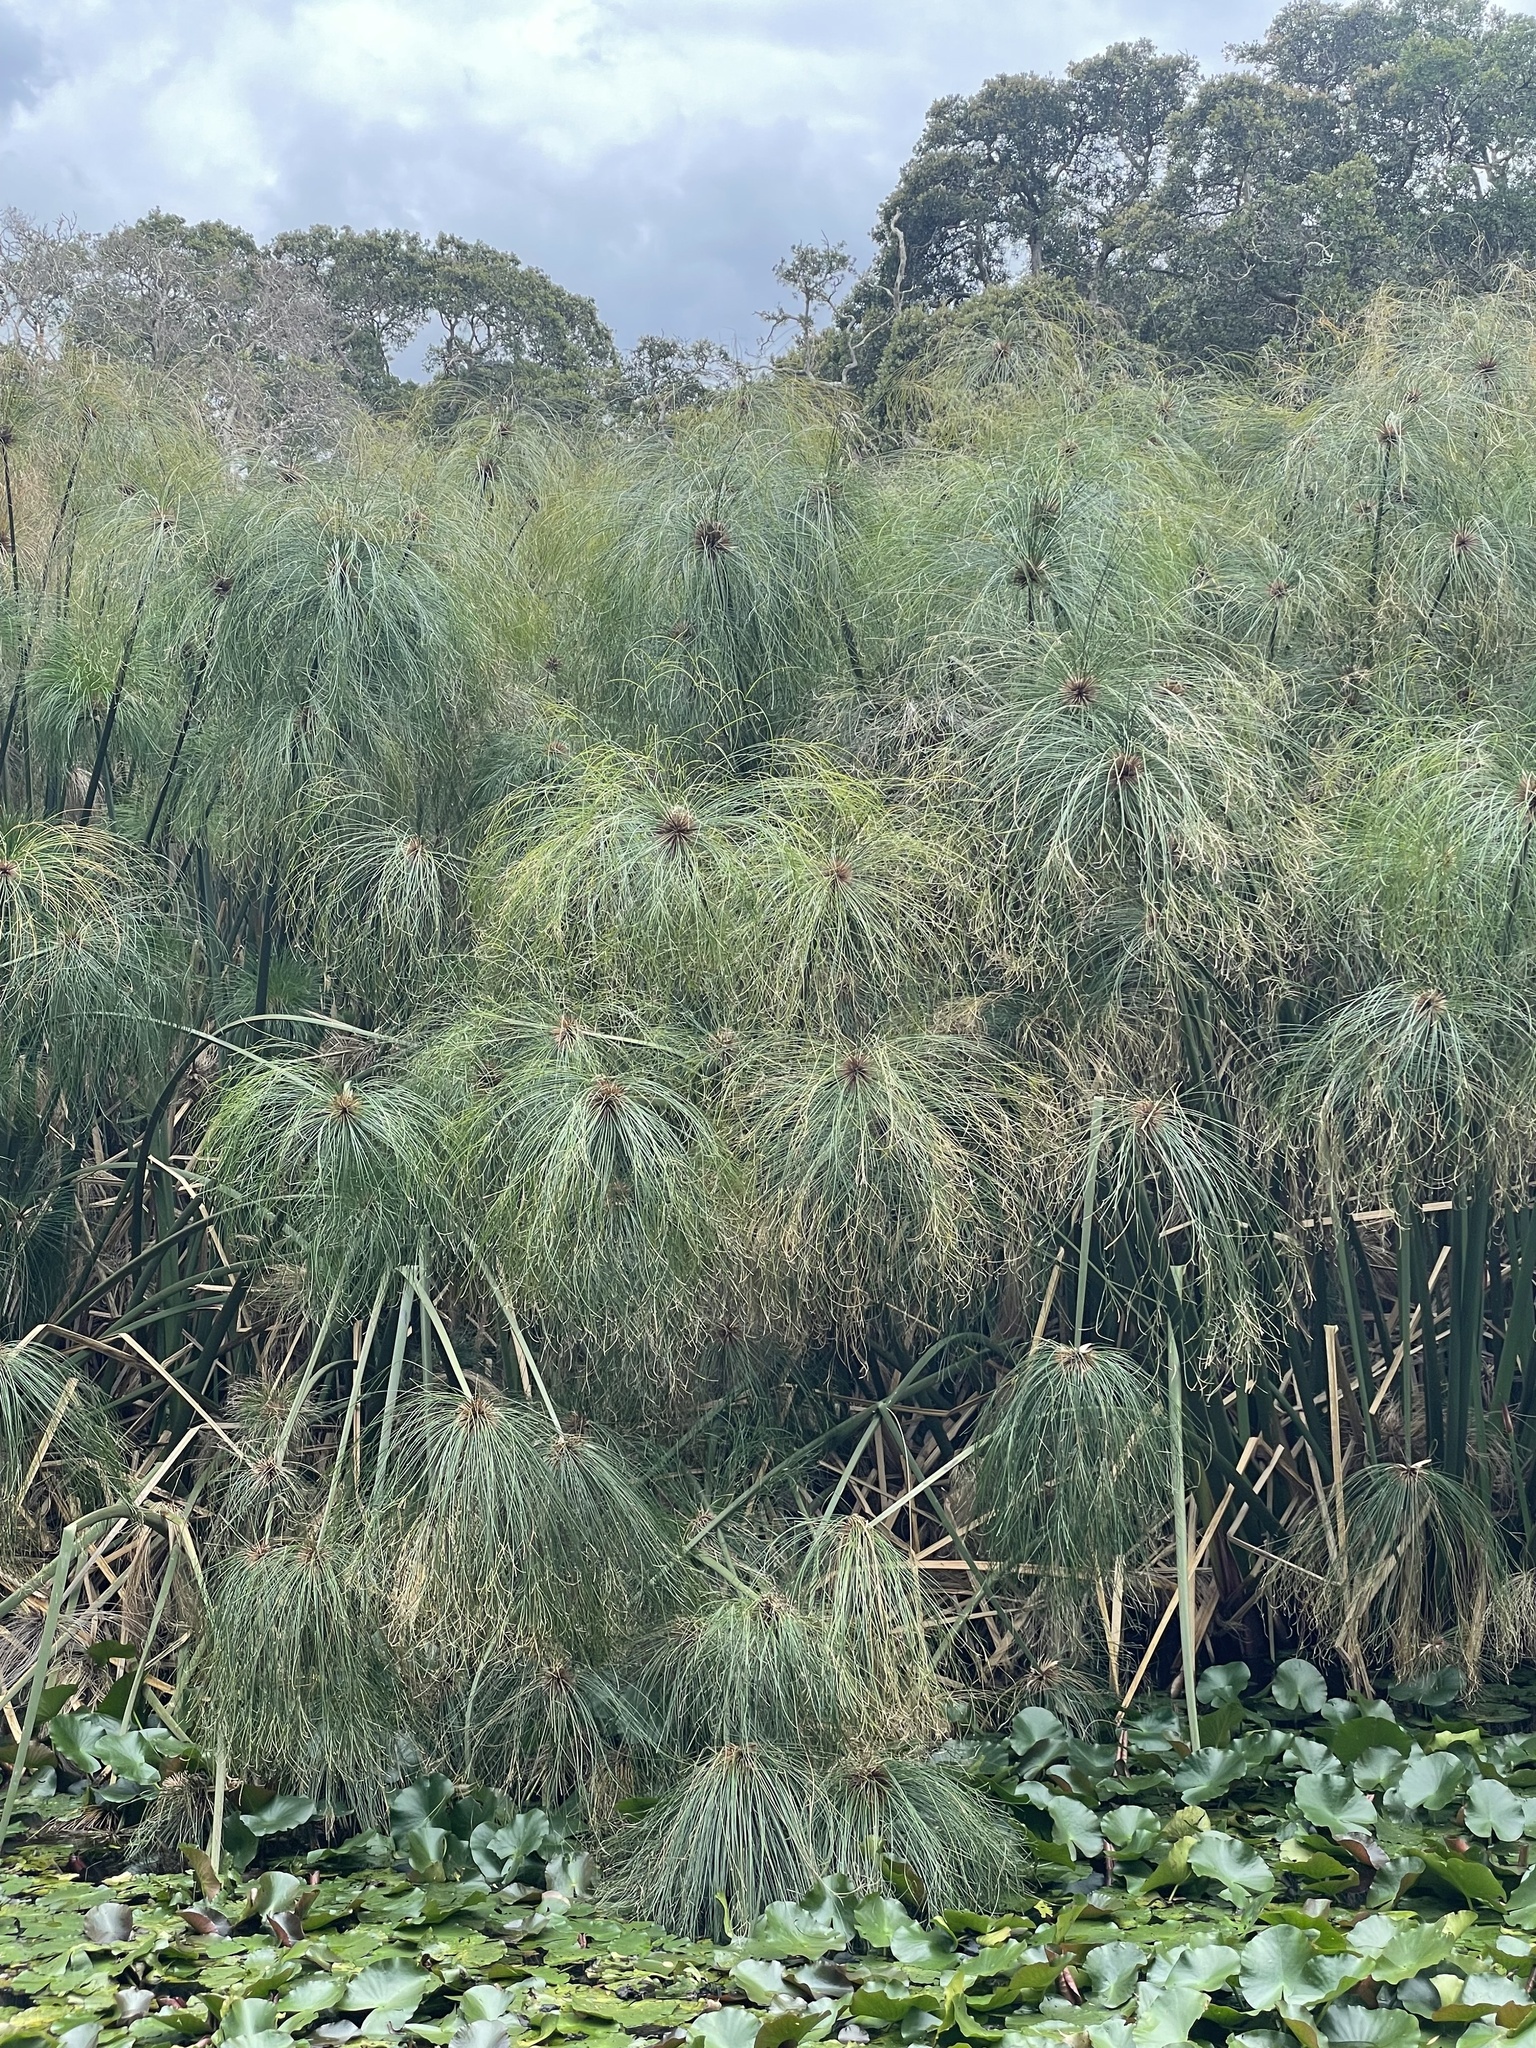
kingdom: Plantae
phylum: Tracheophyta
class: Liliopsida
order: Poales
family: Cyperaceae
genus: Cyperus
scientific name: Cyperus papyrus
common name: Papyrus
